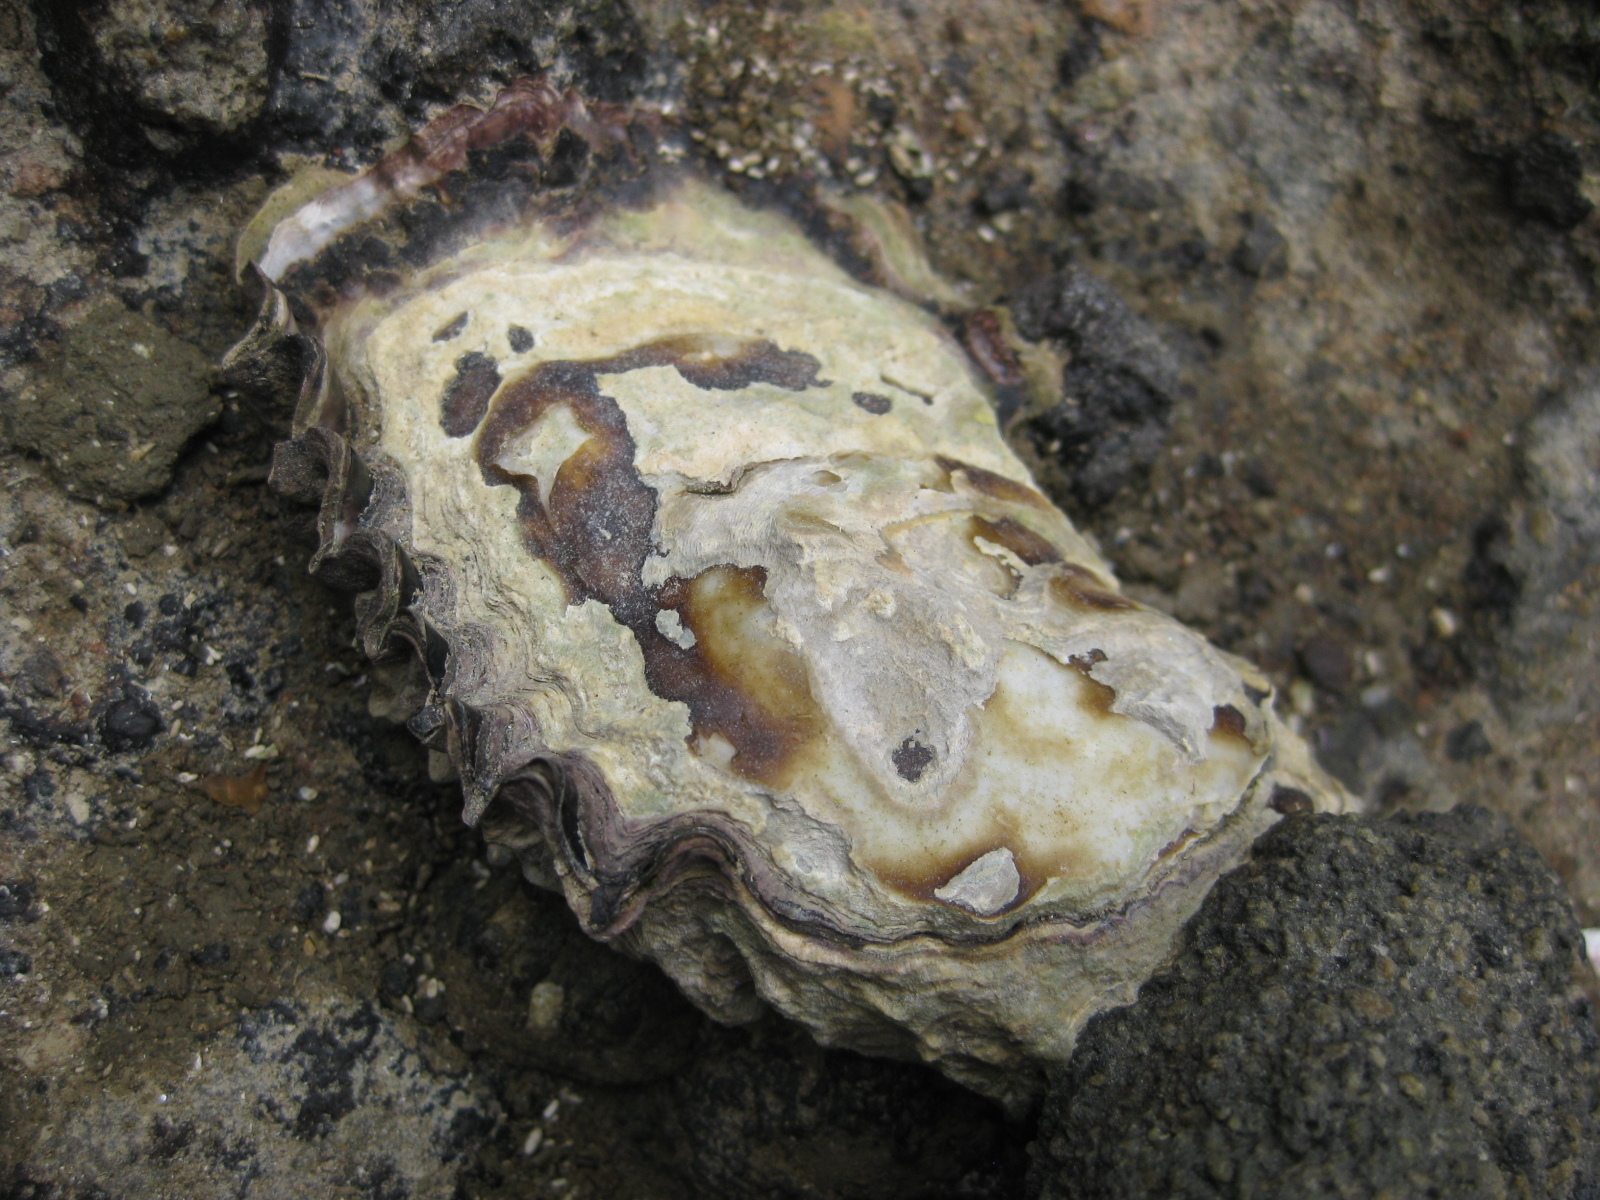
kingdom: Animalia
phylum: Mollusca
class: Bivalvia
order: Ostreida
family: Ostreidae
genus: Saccostrea
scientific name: Saccostrea glomerata
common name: Sydney cupped oyster
